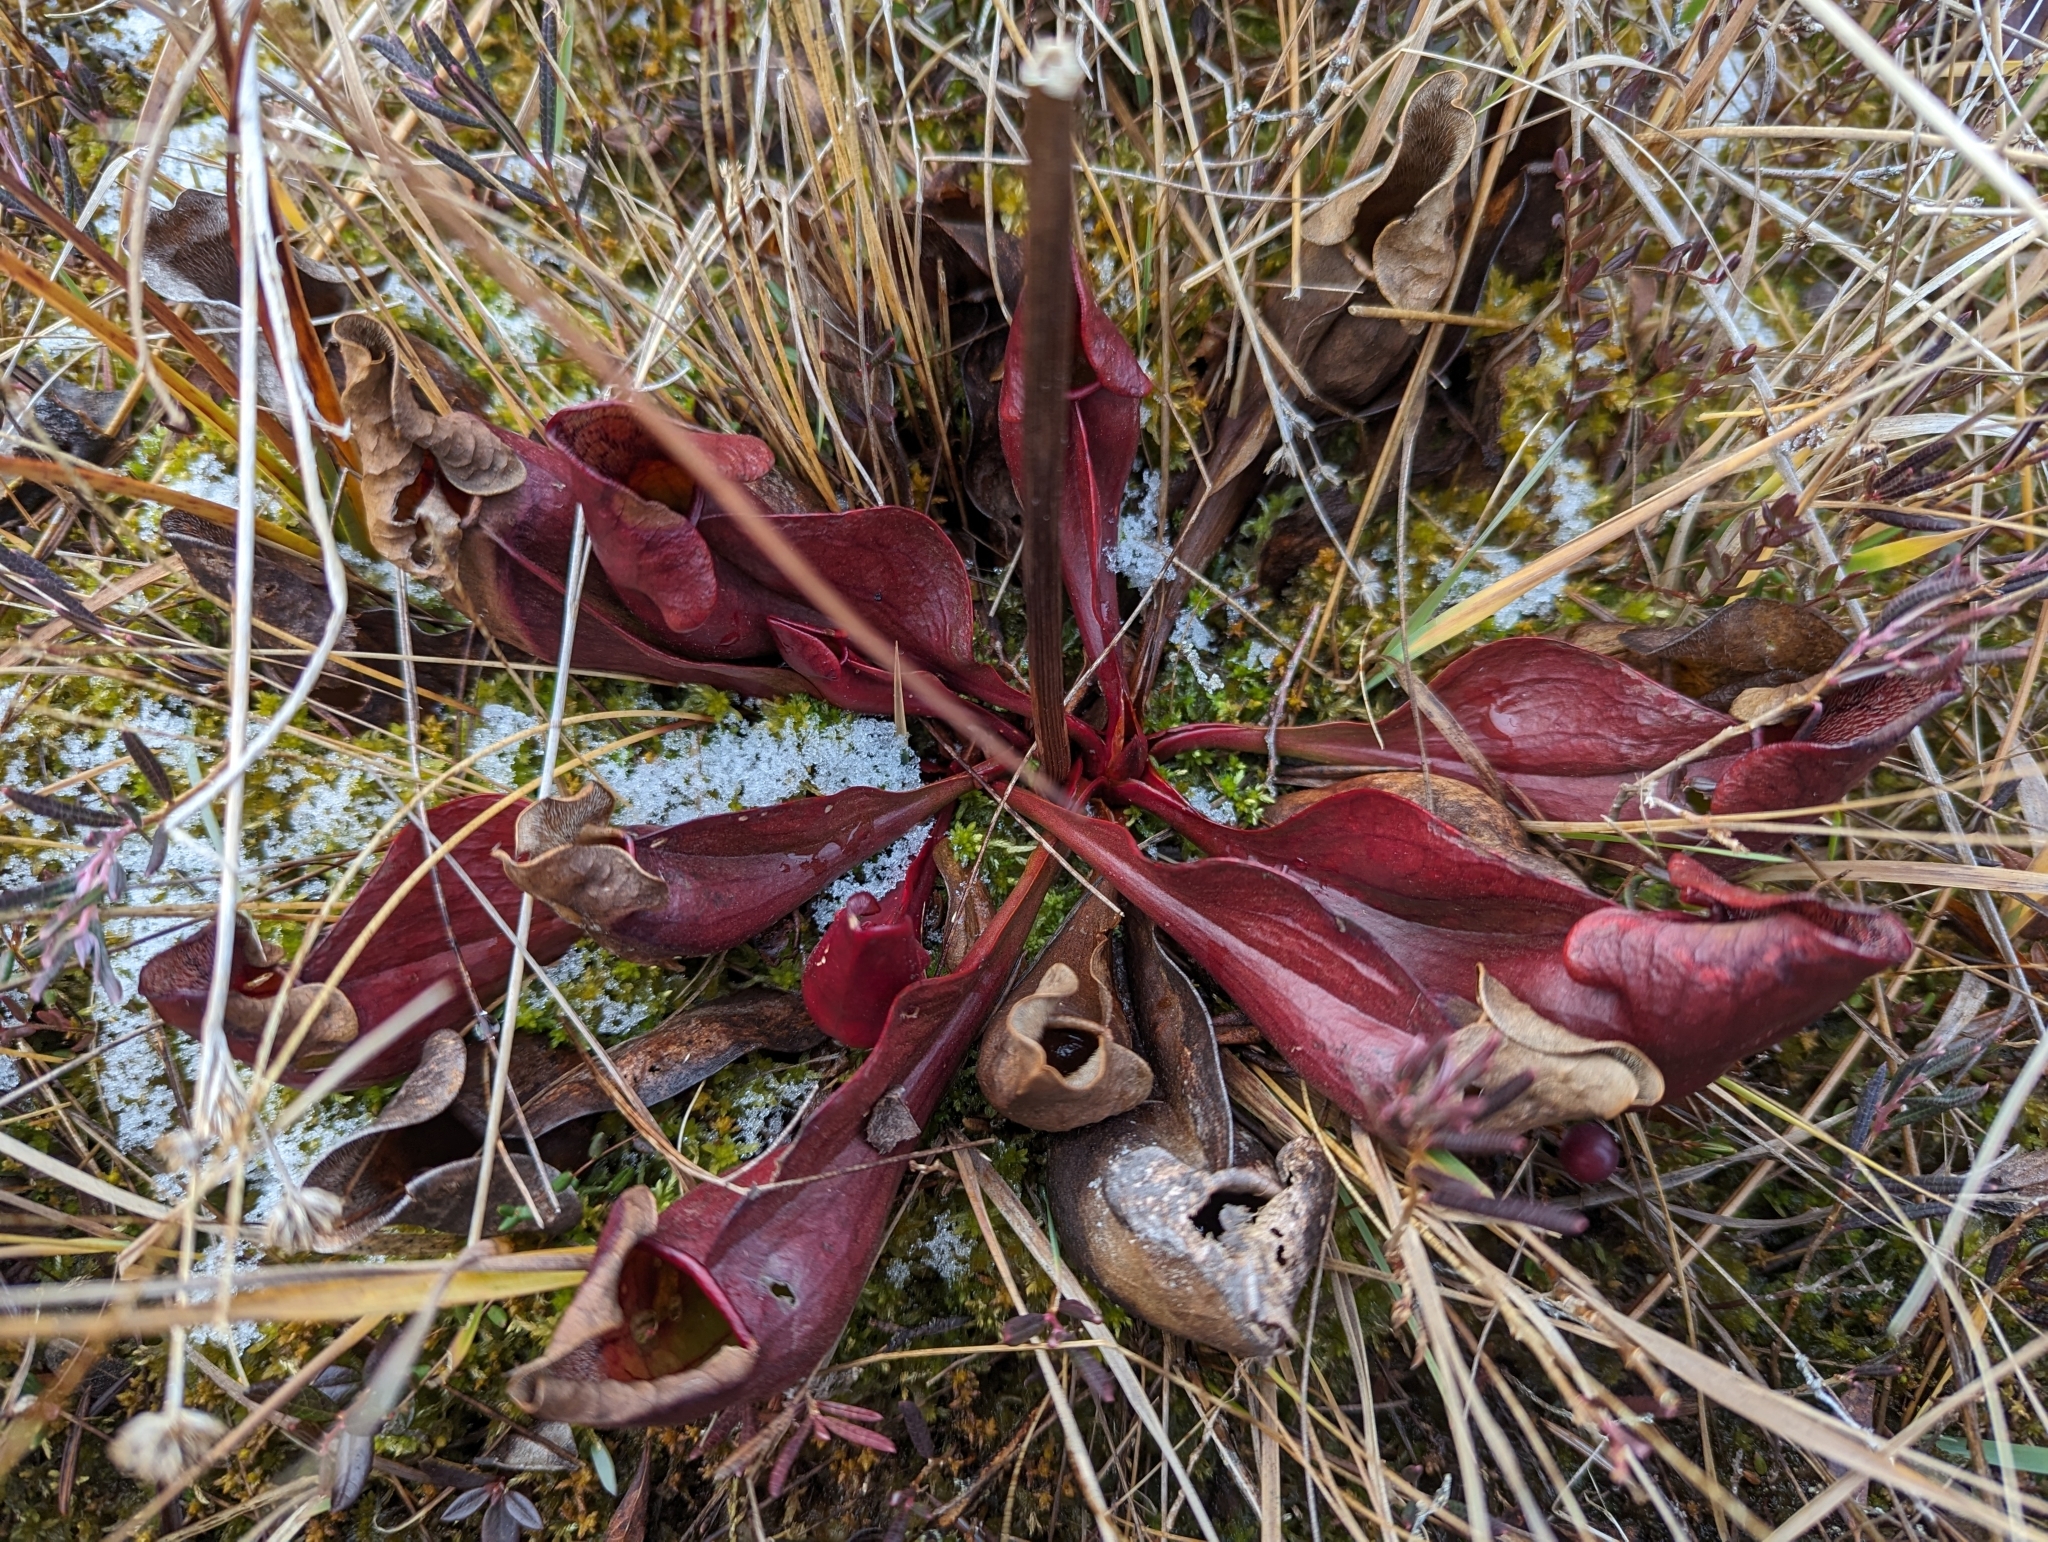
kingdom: Plantae
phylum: Tracheophyta
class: Magnoliopsida
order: Ericales
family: Sarraceniaceae
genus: Sarracenia
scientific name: Sarracenia purpurea
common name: Pitcherplant
